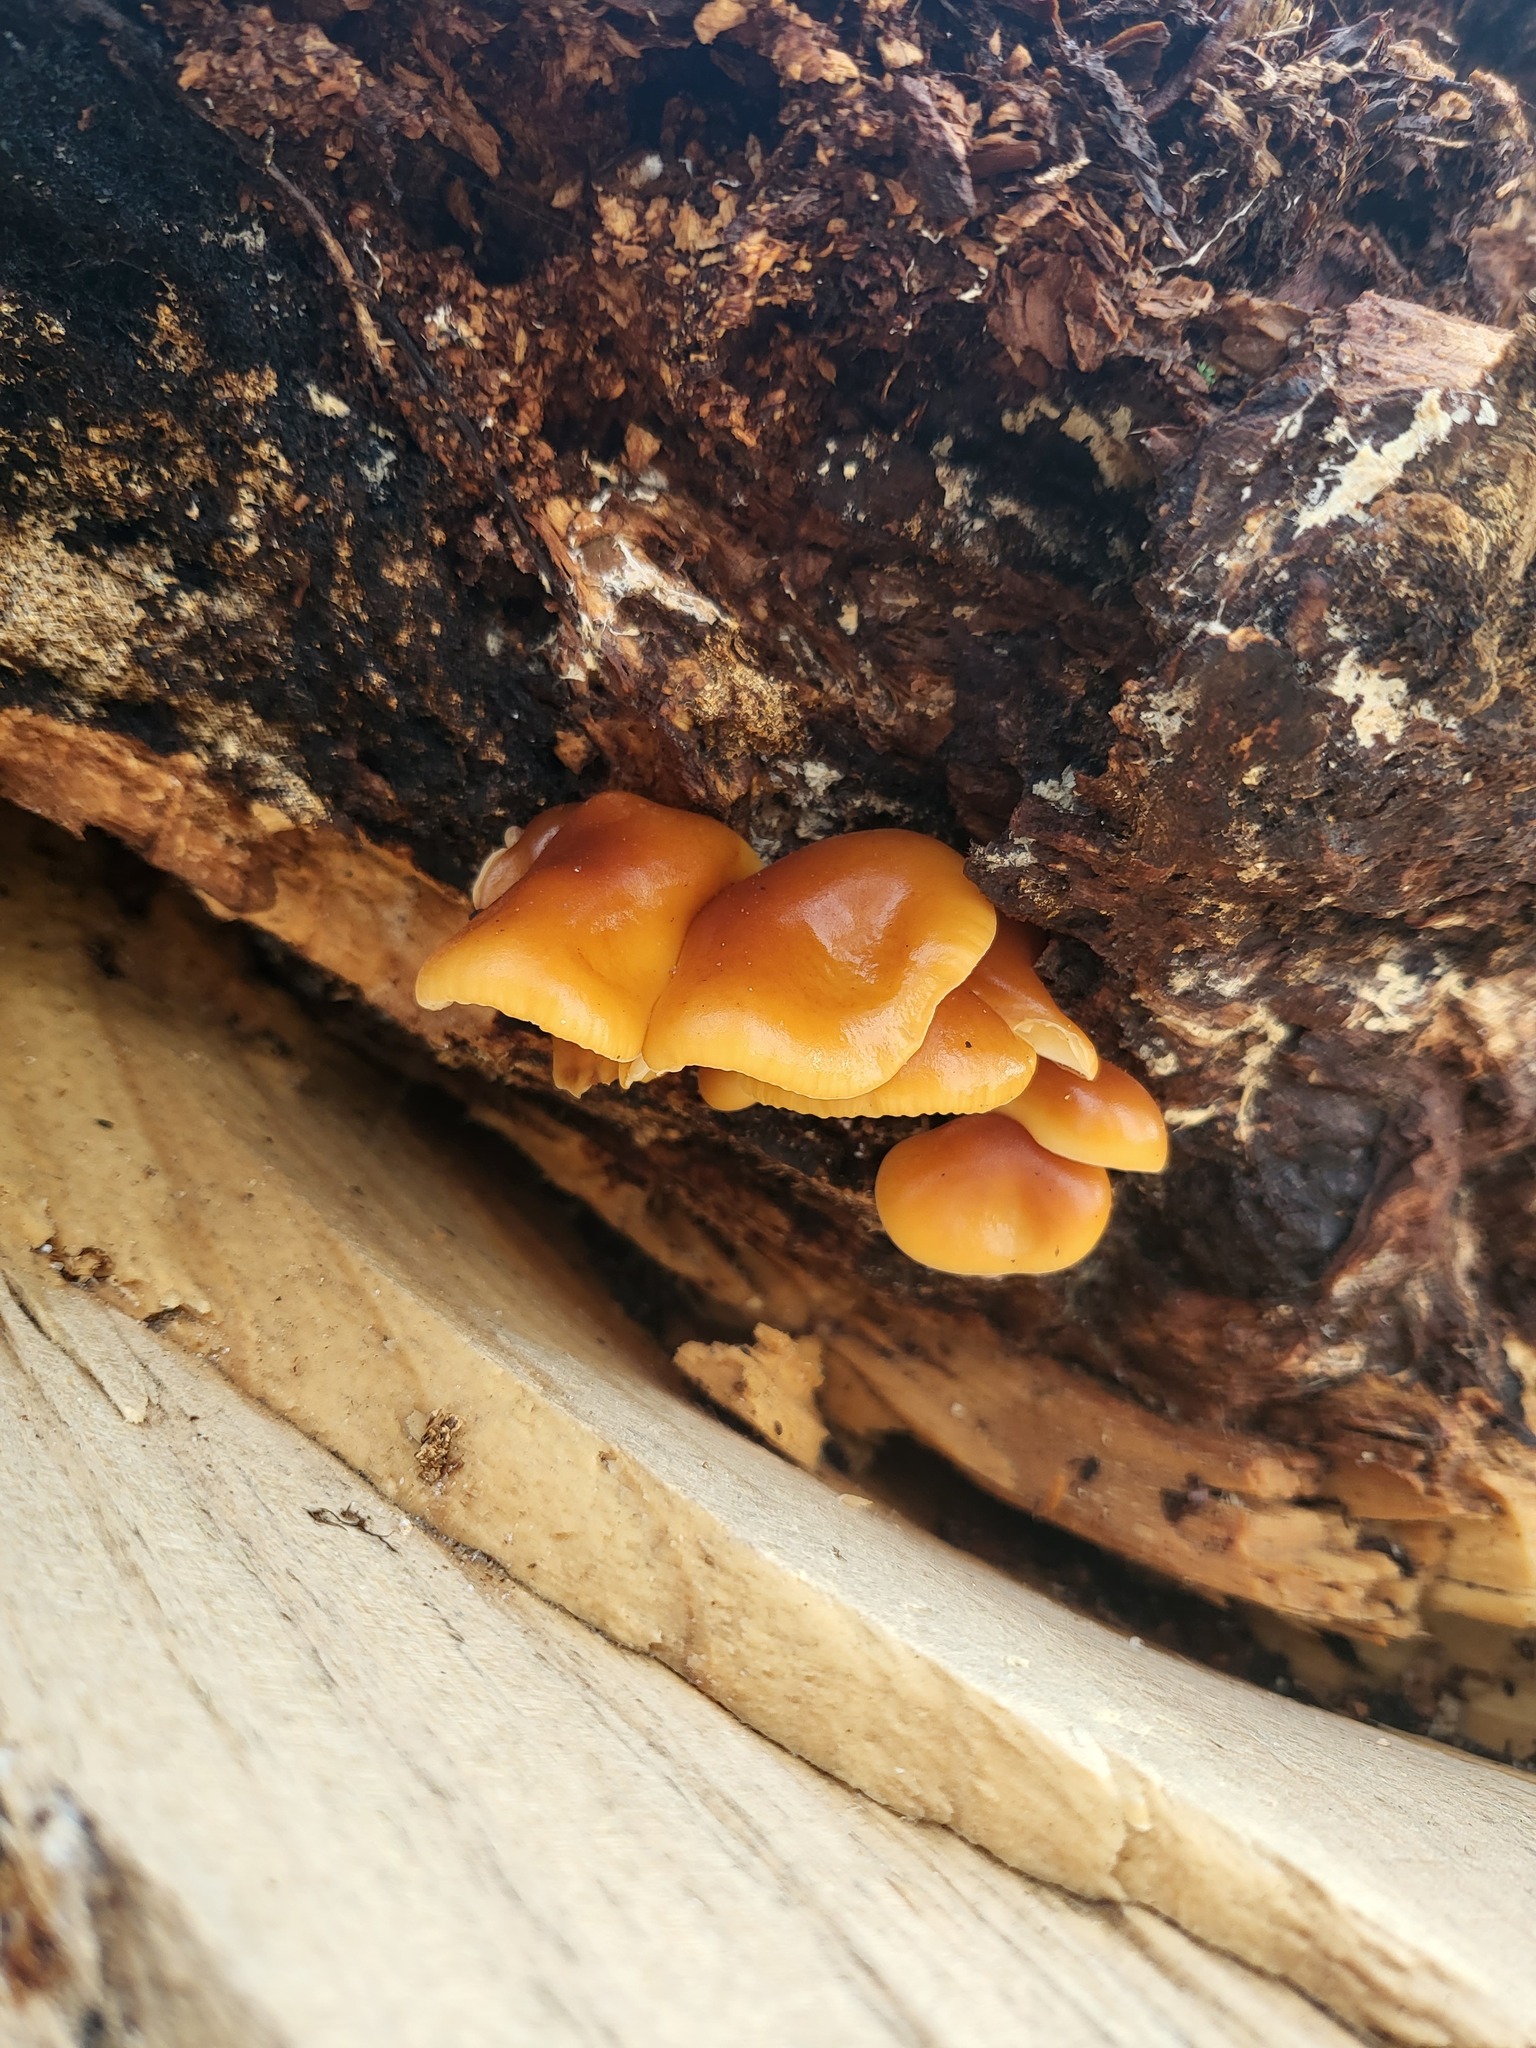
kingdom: Fungi
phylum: Basidiomycota
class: Agaricomycetes
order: Agaricales
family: Physalacriaceae
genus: Flammulina
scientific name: Flammulina
